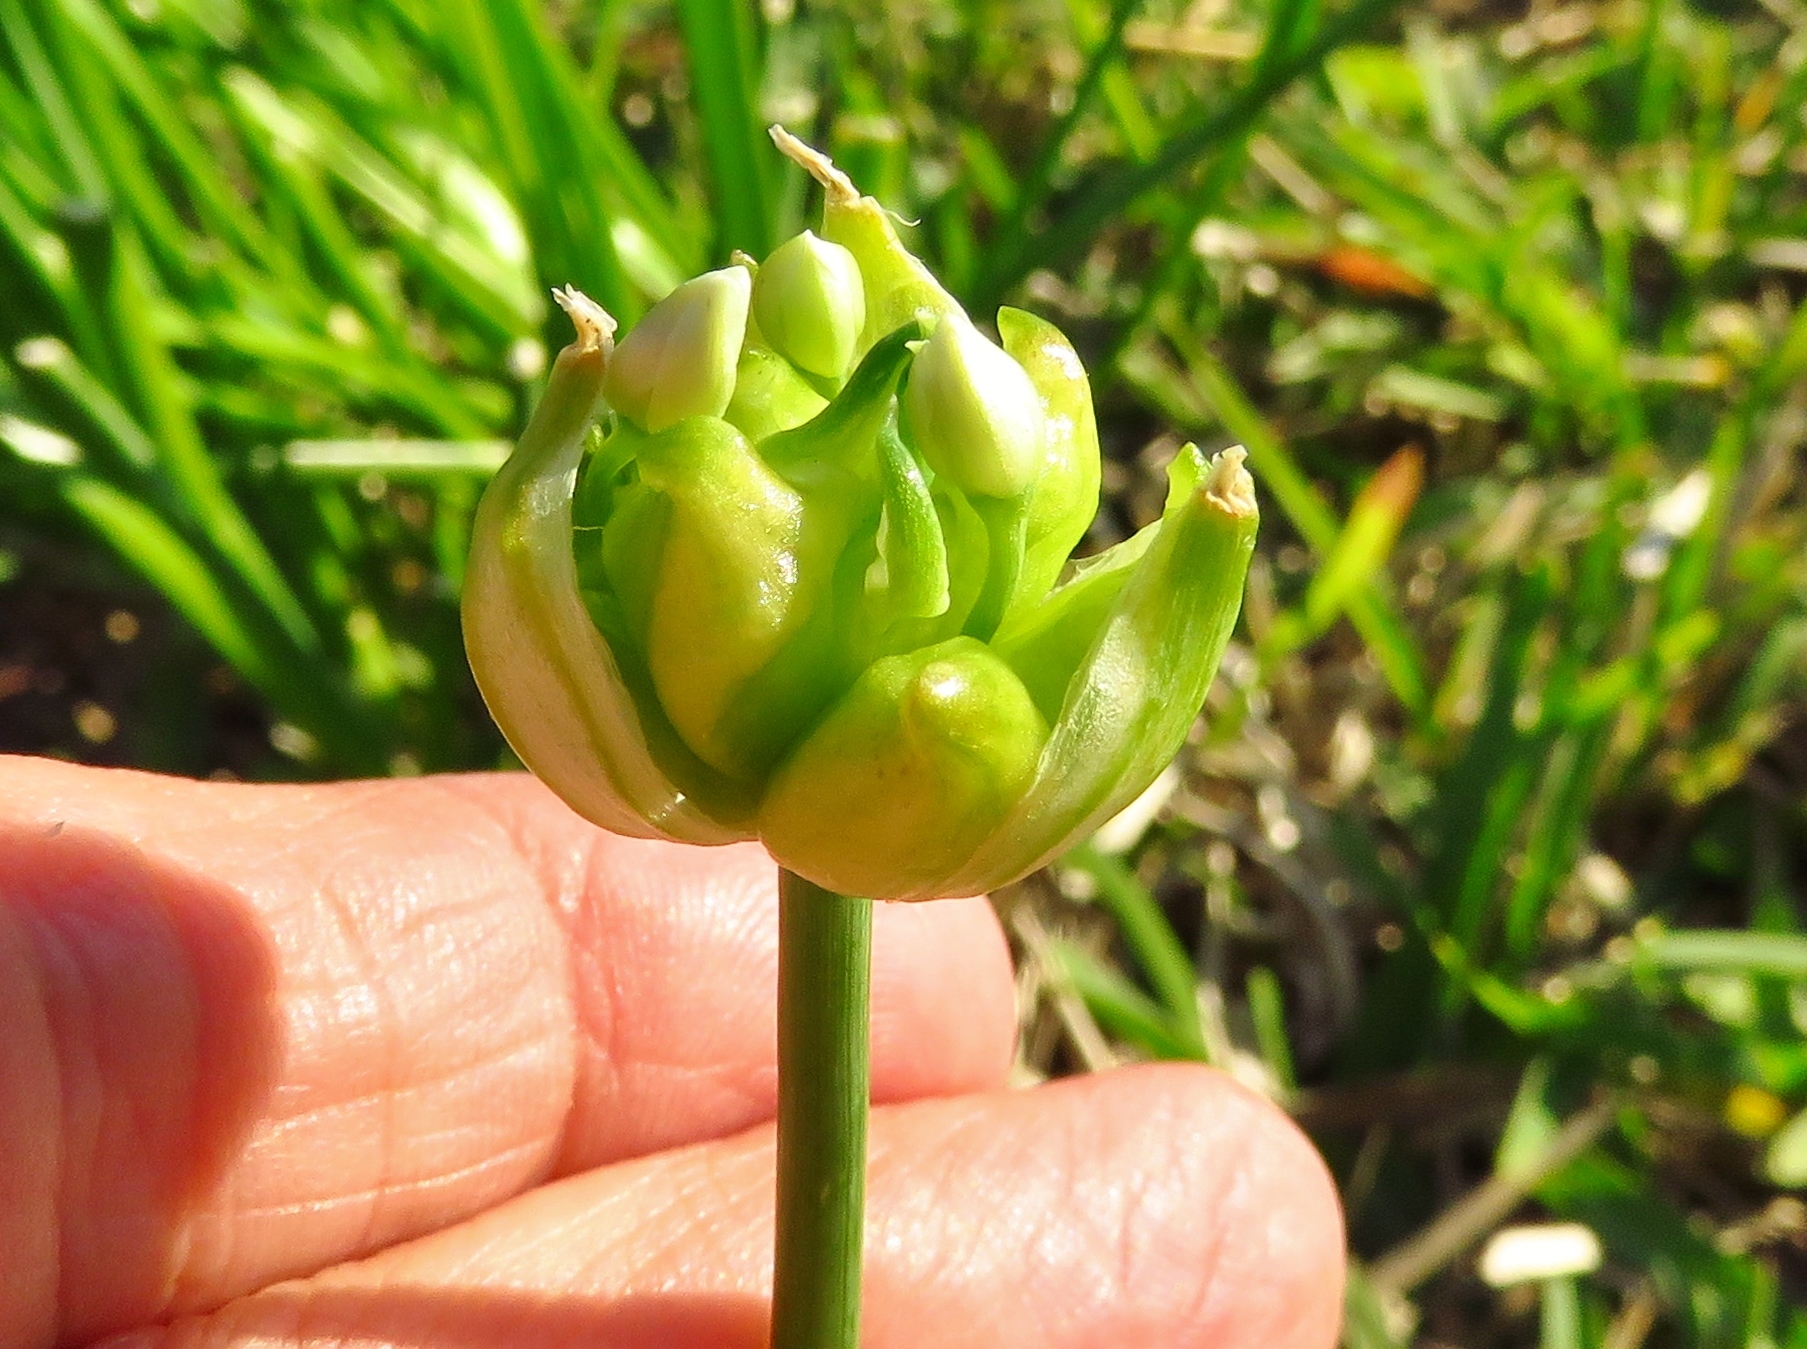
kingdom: Plantae
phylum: Tracheophyta
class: Liliopsida
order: Asparagales
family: Amaryllidaceae
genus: Allium
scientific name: Allium canadense
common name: Meadow garlic
